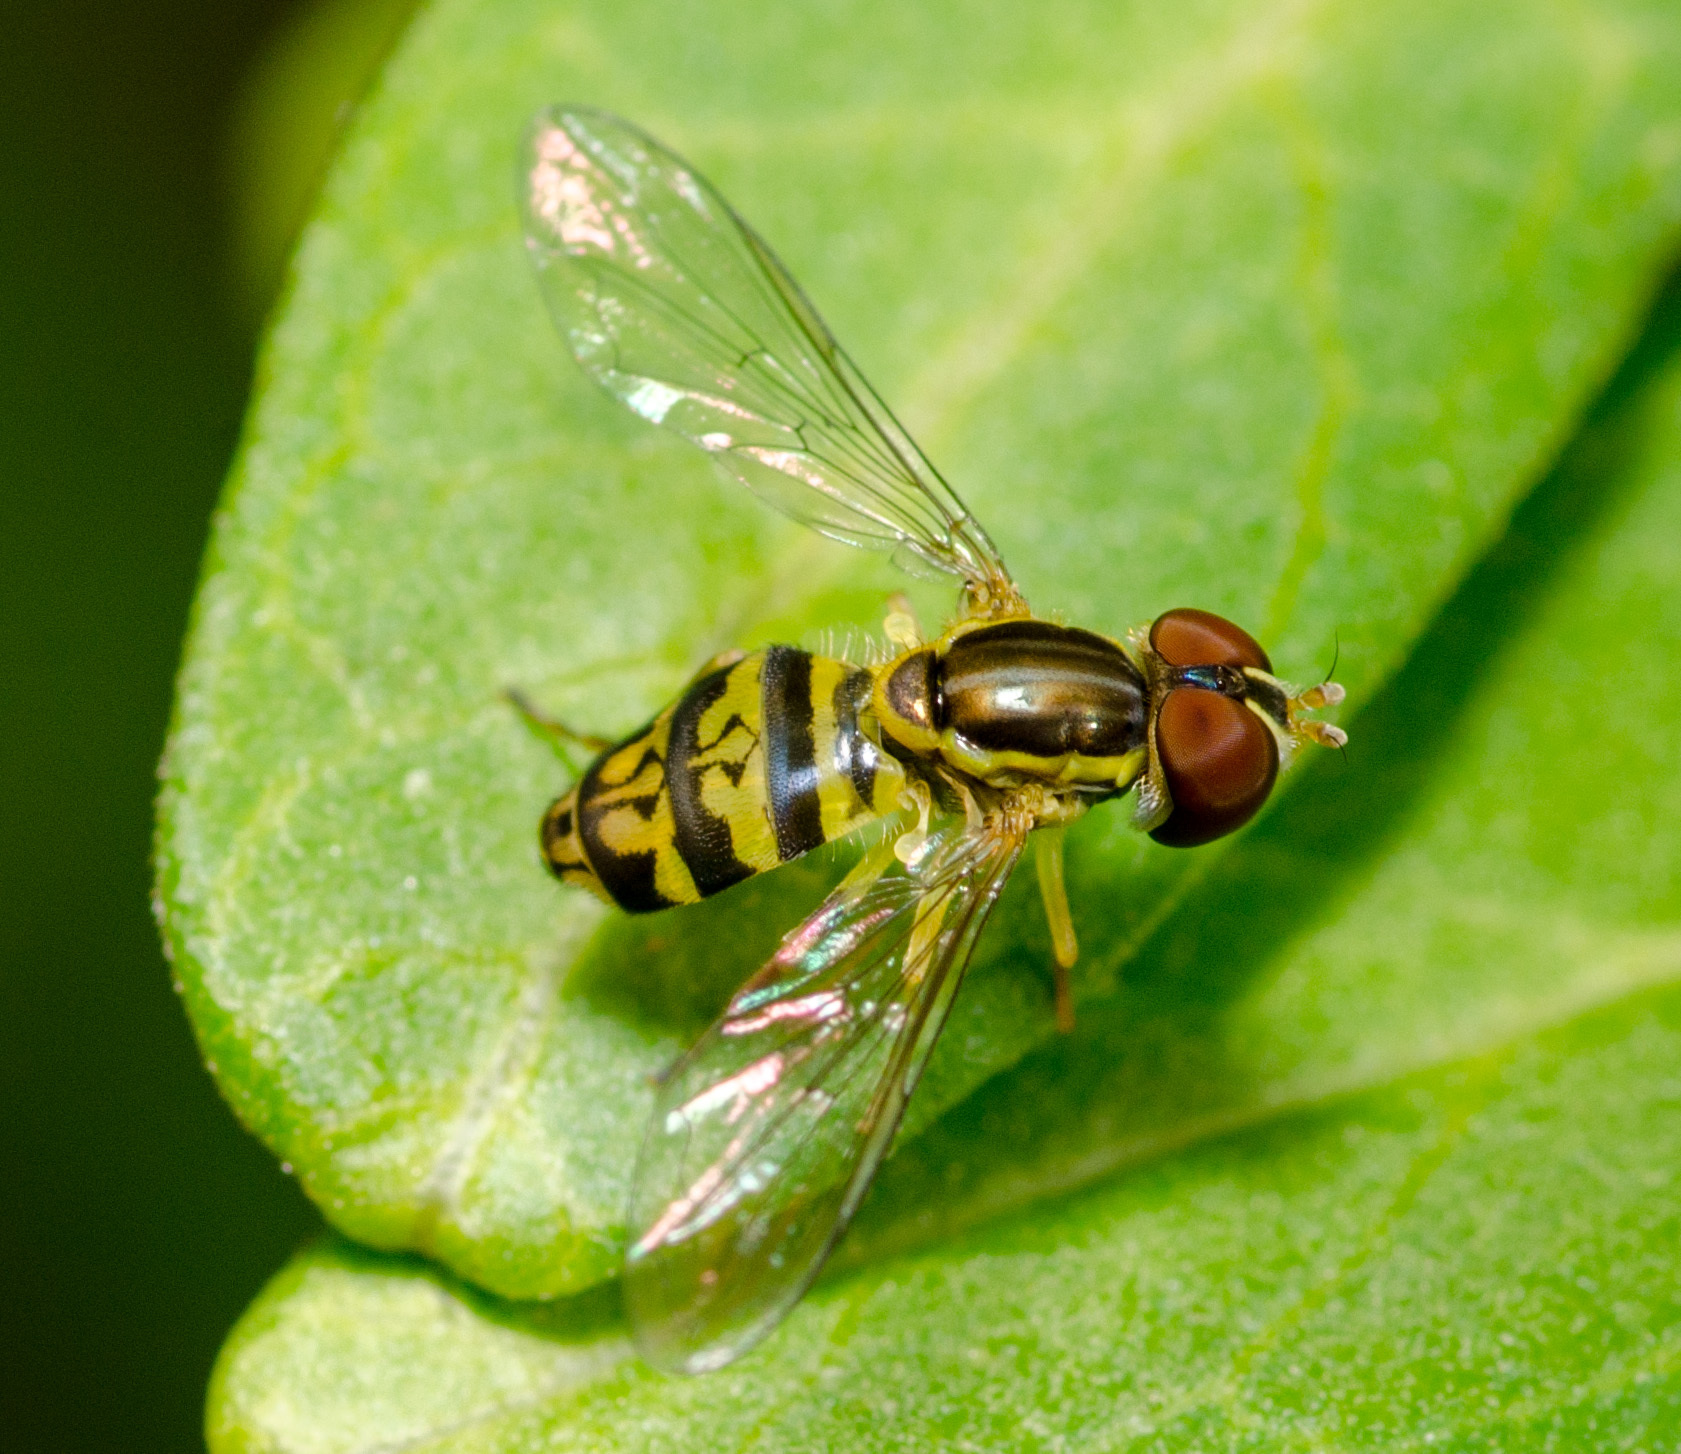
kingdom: Animalia
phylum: Arthropoda
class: Insecta
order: Diptera
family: Syrphidae
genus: Toxomerus
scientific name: Toxomerus geminatus
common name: Eastern calligrapher
